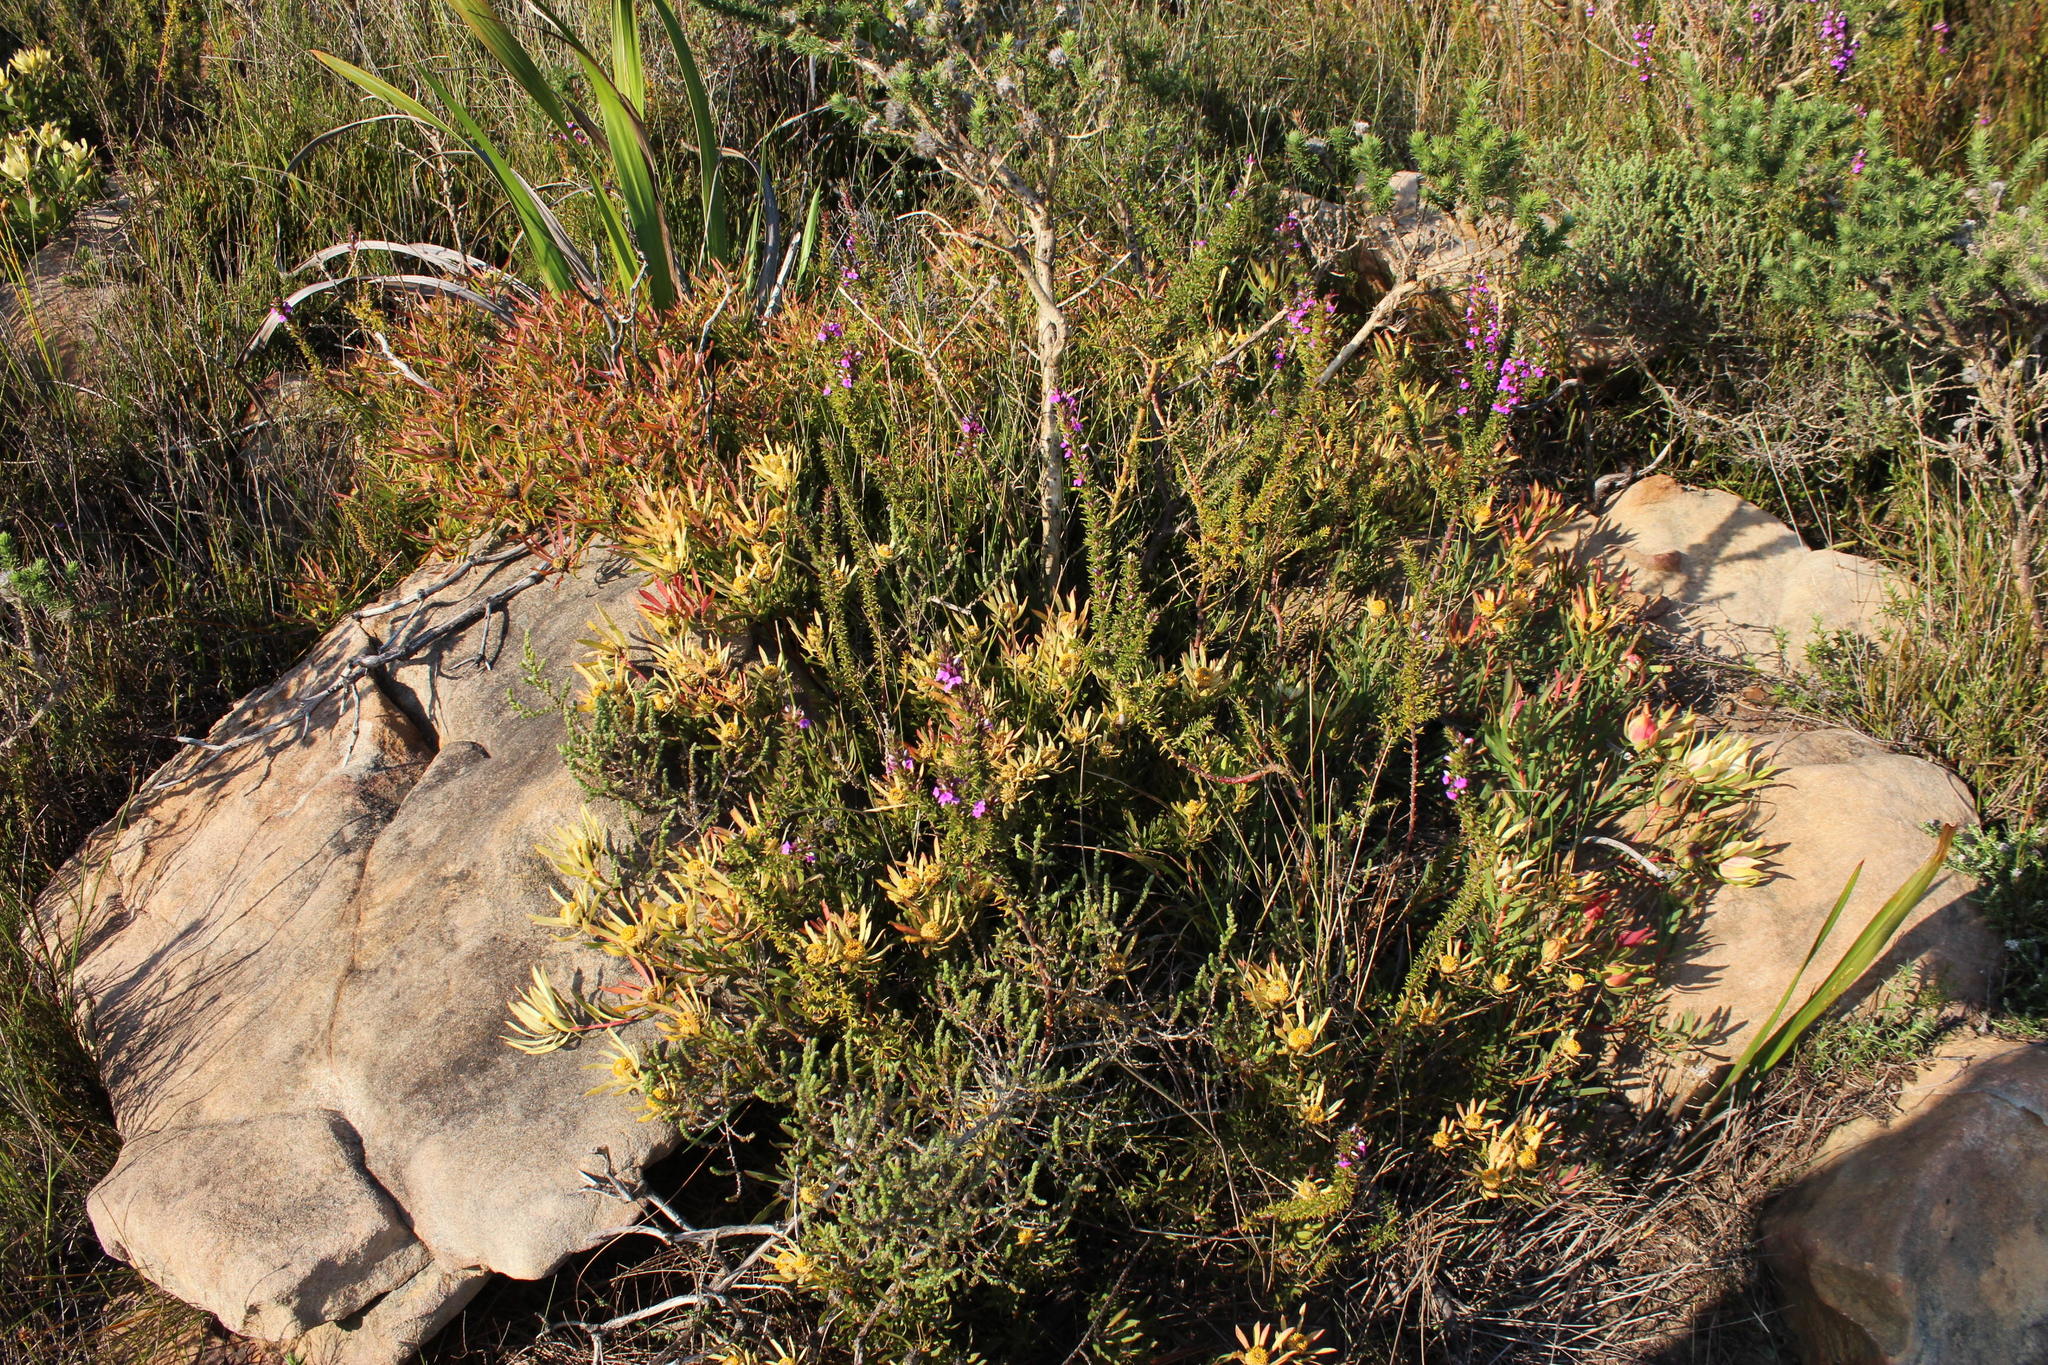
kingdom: Plantae
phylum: Tracheophyta
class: Magnoliopsida
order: Proteales
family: Proteaceae
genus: Leucadendron
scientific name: Leucadendron salignum
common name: Common sunshine conebush
